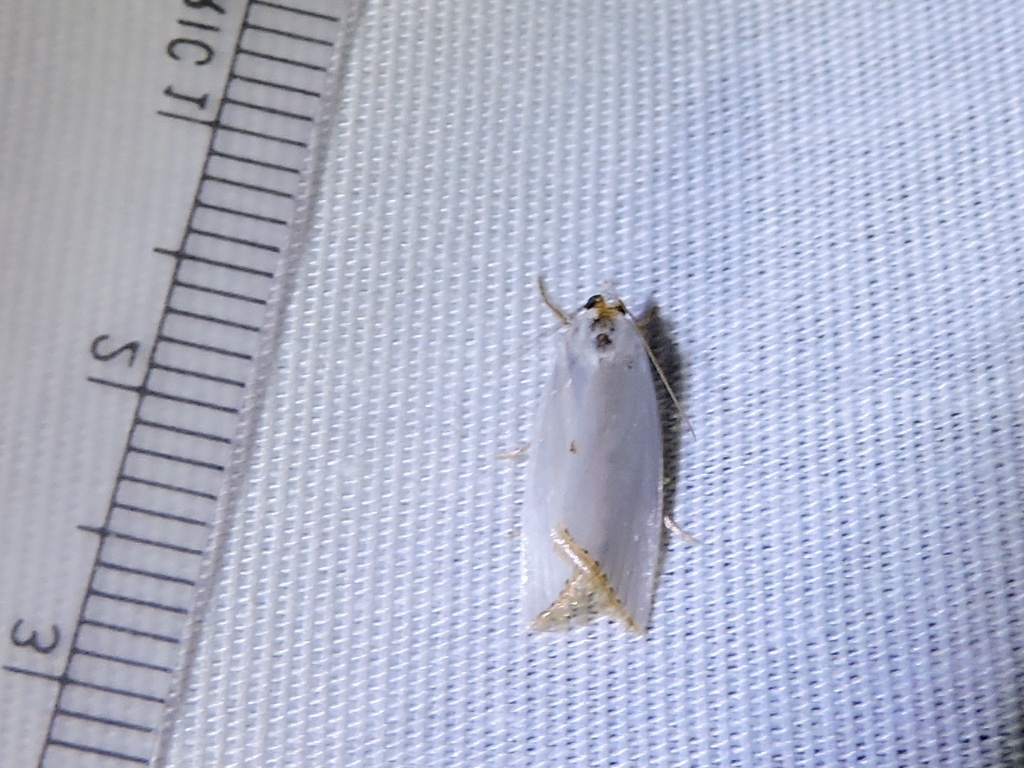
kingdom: Animalia
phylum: Arthropoda
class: Insecta
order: Lepidoptera
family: Crambidae
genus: Argyria
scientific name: Argyria nivalis
